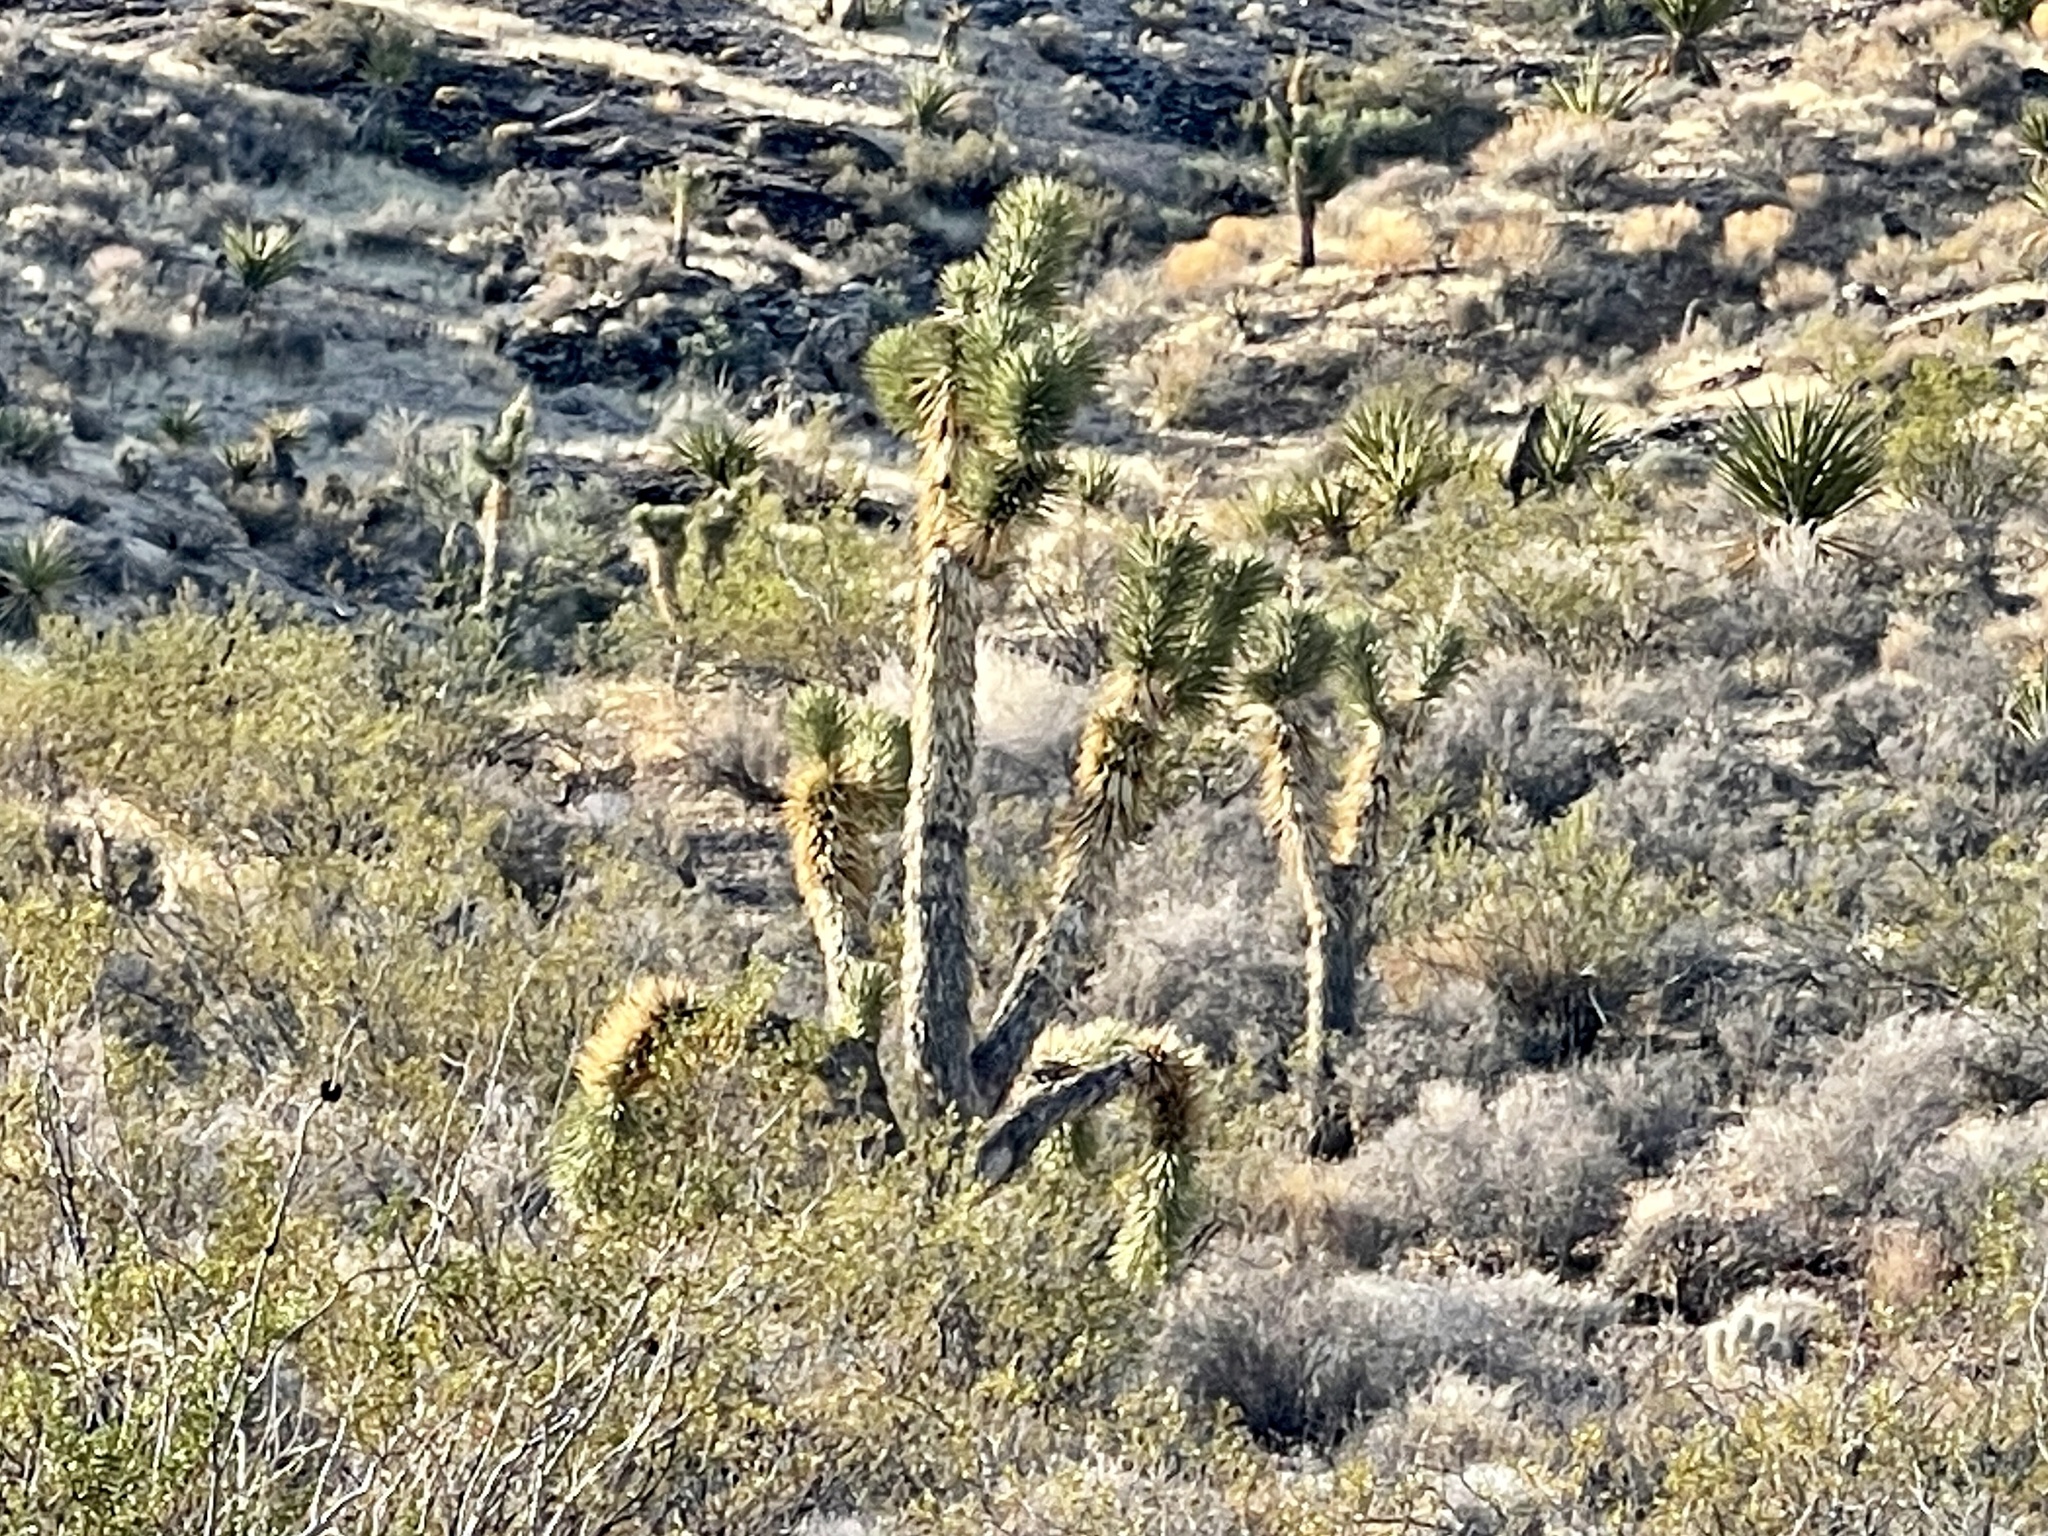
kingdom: Plantae
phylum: Tracheophyta
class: Liliopsida
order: Asparagales
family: Asparagaceae
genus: Yucca
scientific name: Yucca brevifolia
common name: Joshua tree
